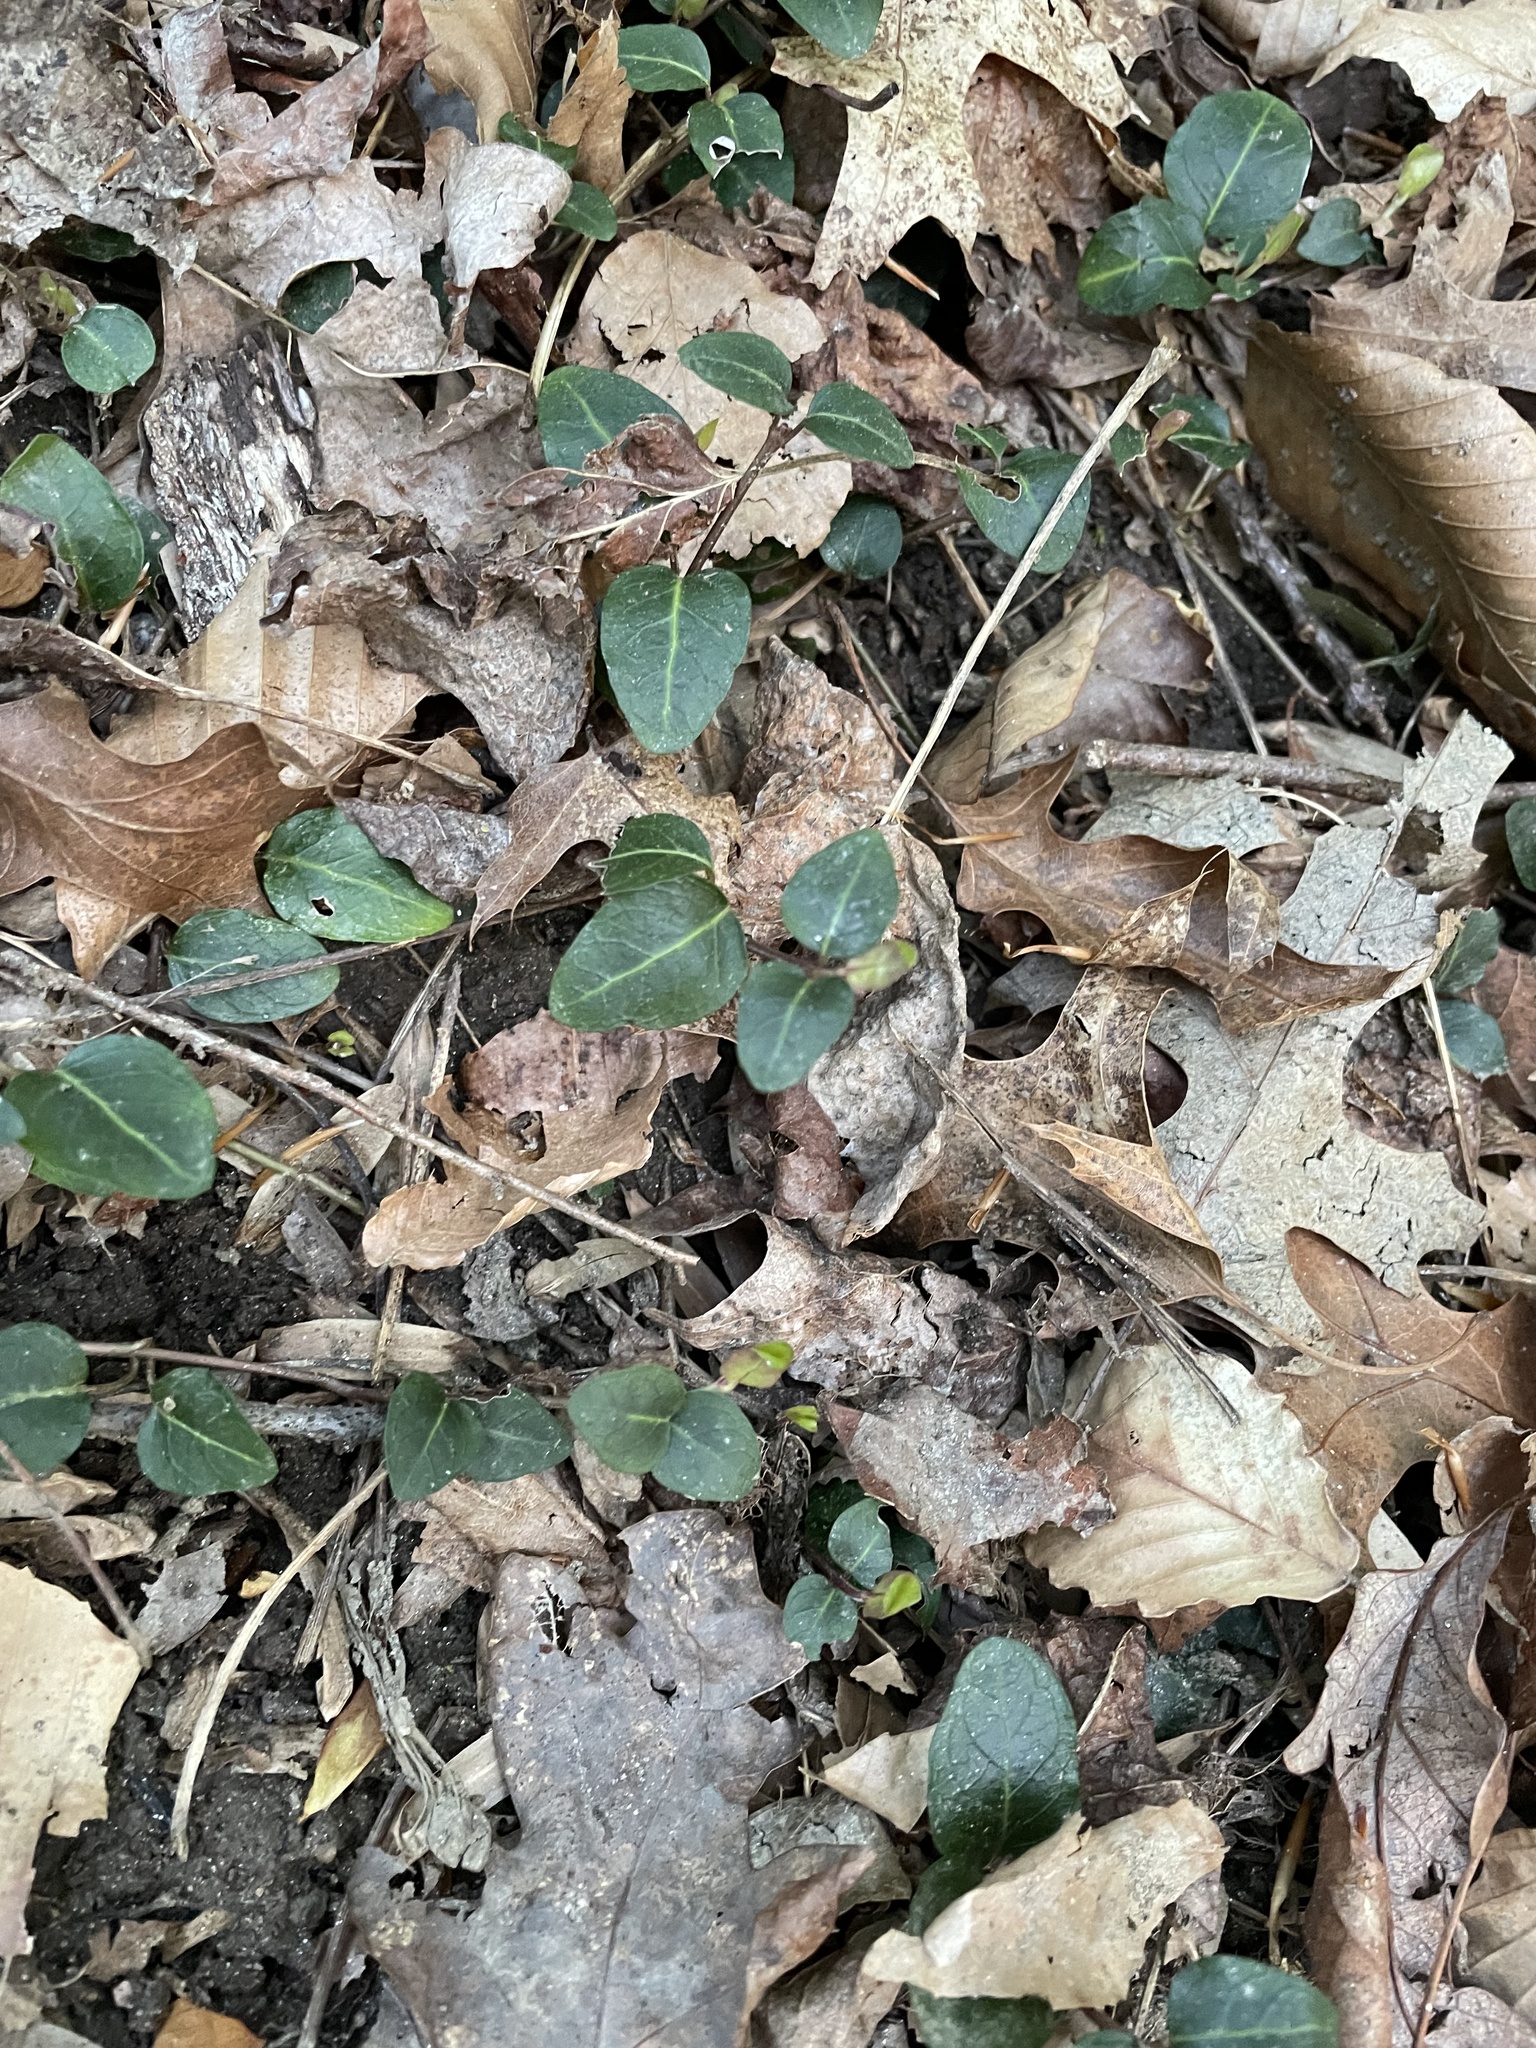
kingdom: Plantae
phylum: Tracheophyta
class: Magnoliopsida
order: Gentianales
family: Rubiaceae
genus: Mitchella
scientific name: Mitchella repens
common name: Partridge-berry
